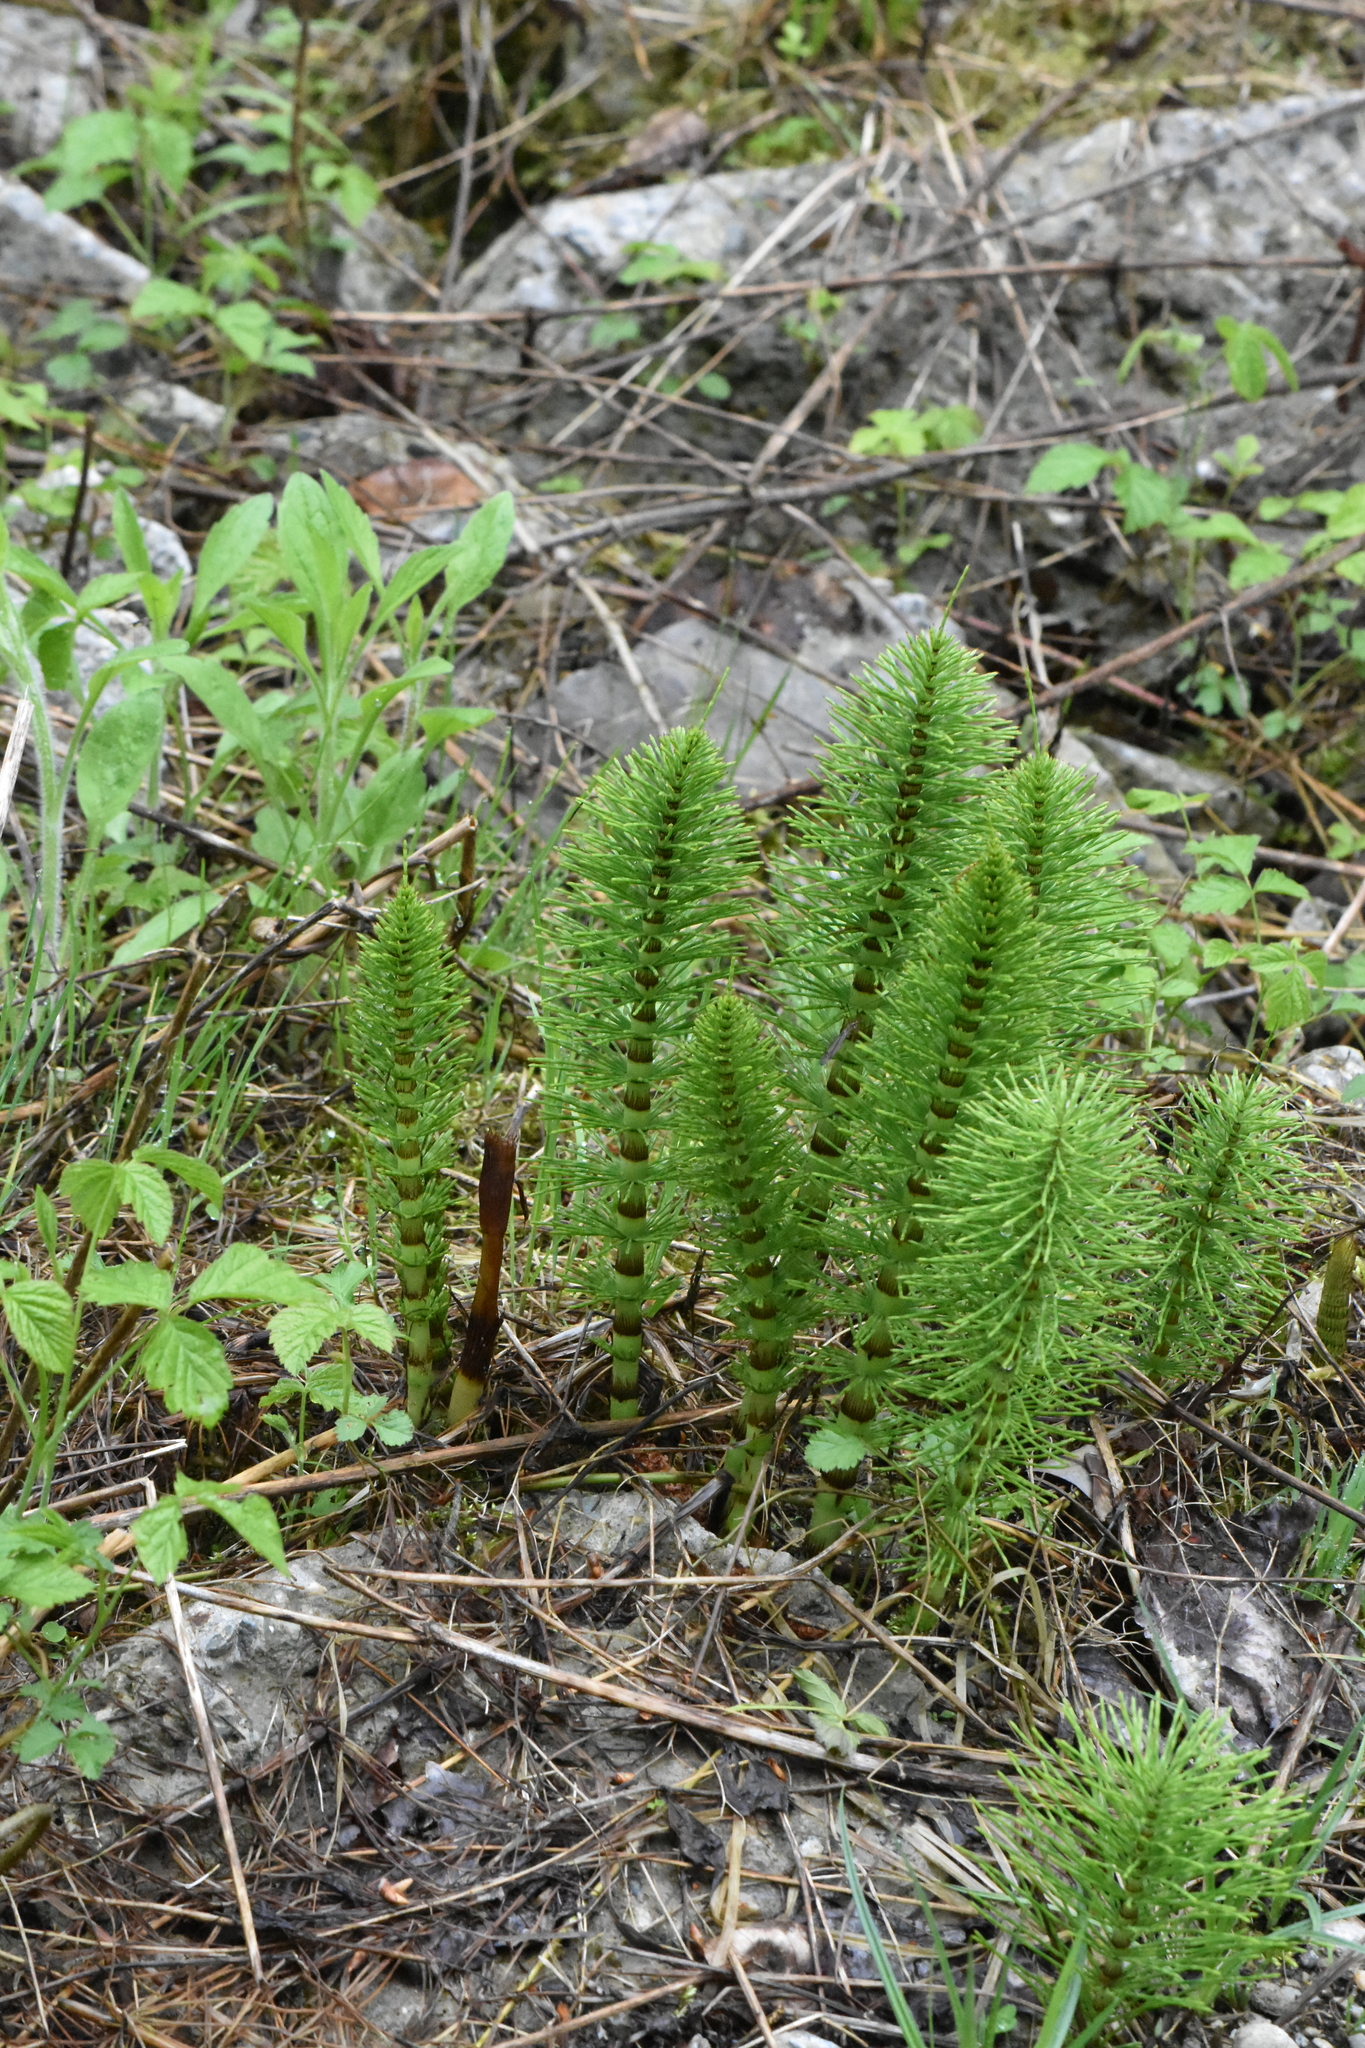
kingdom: Plantae
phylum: Tracheophyta
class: Polypodiopsida
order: Equisetales
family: Equisetaceae
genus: Equisetum
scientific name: Equisetum telmateia
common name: Great horsetail
